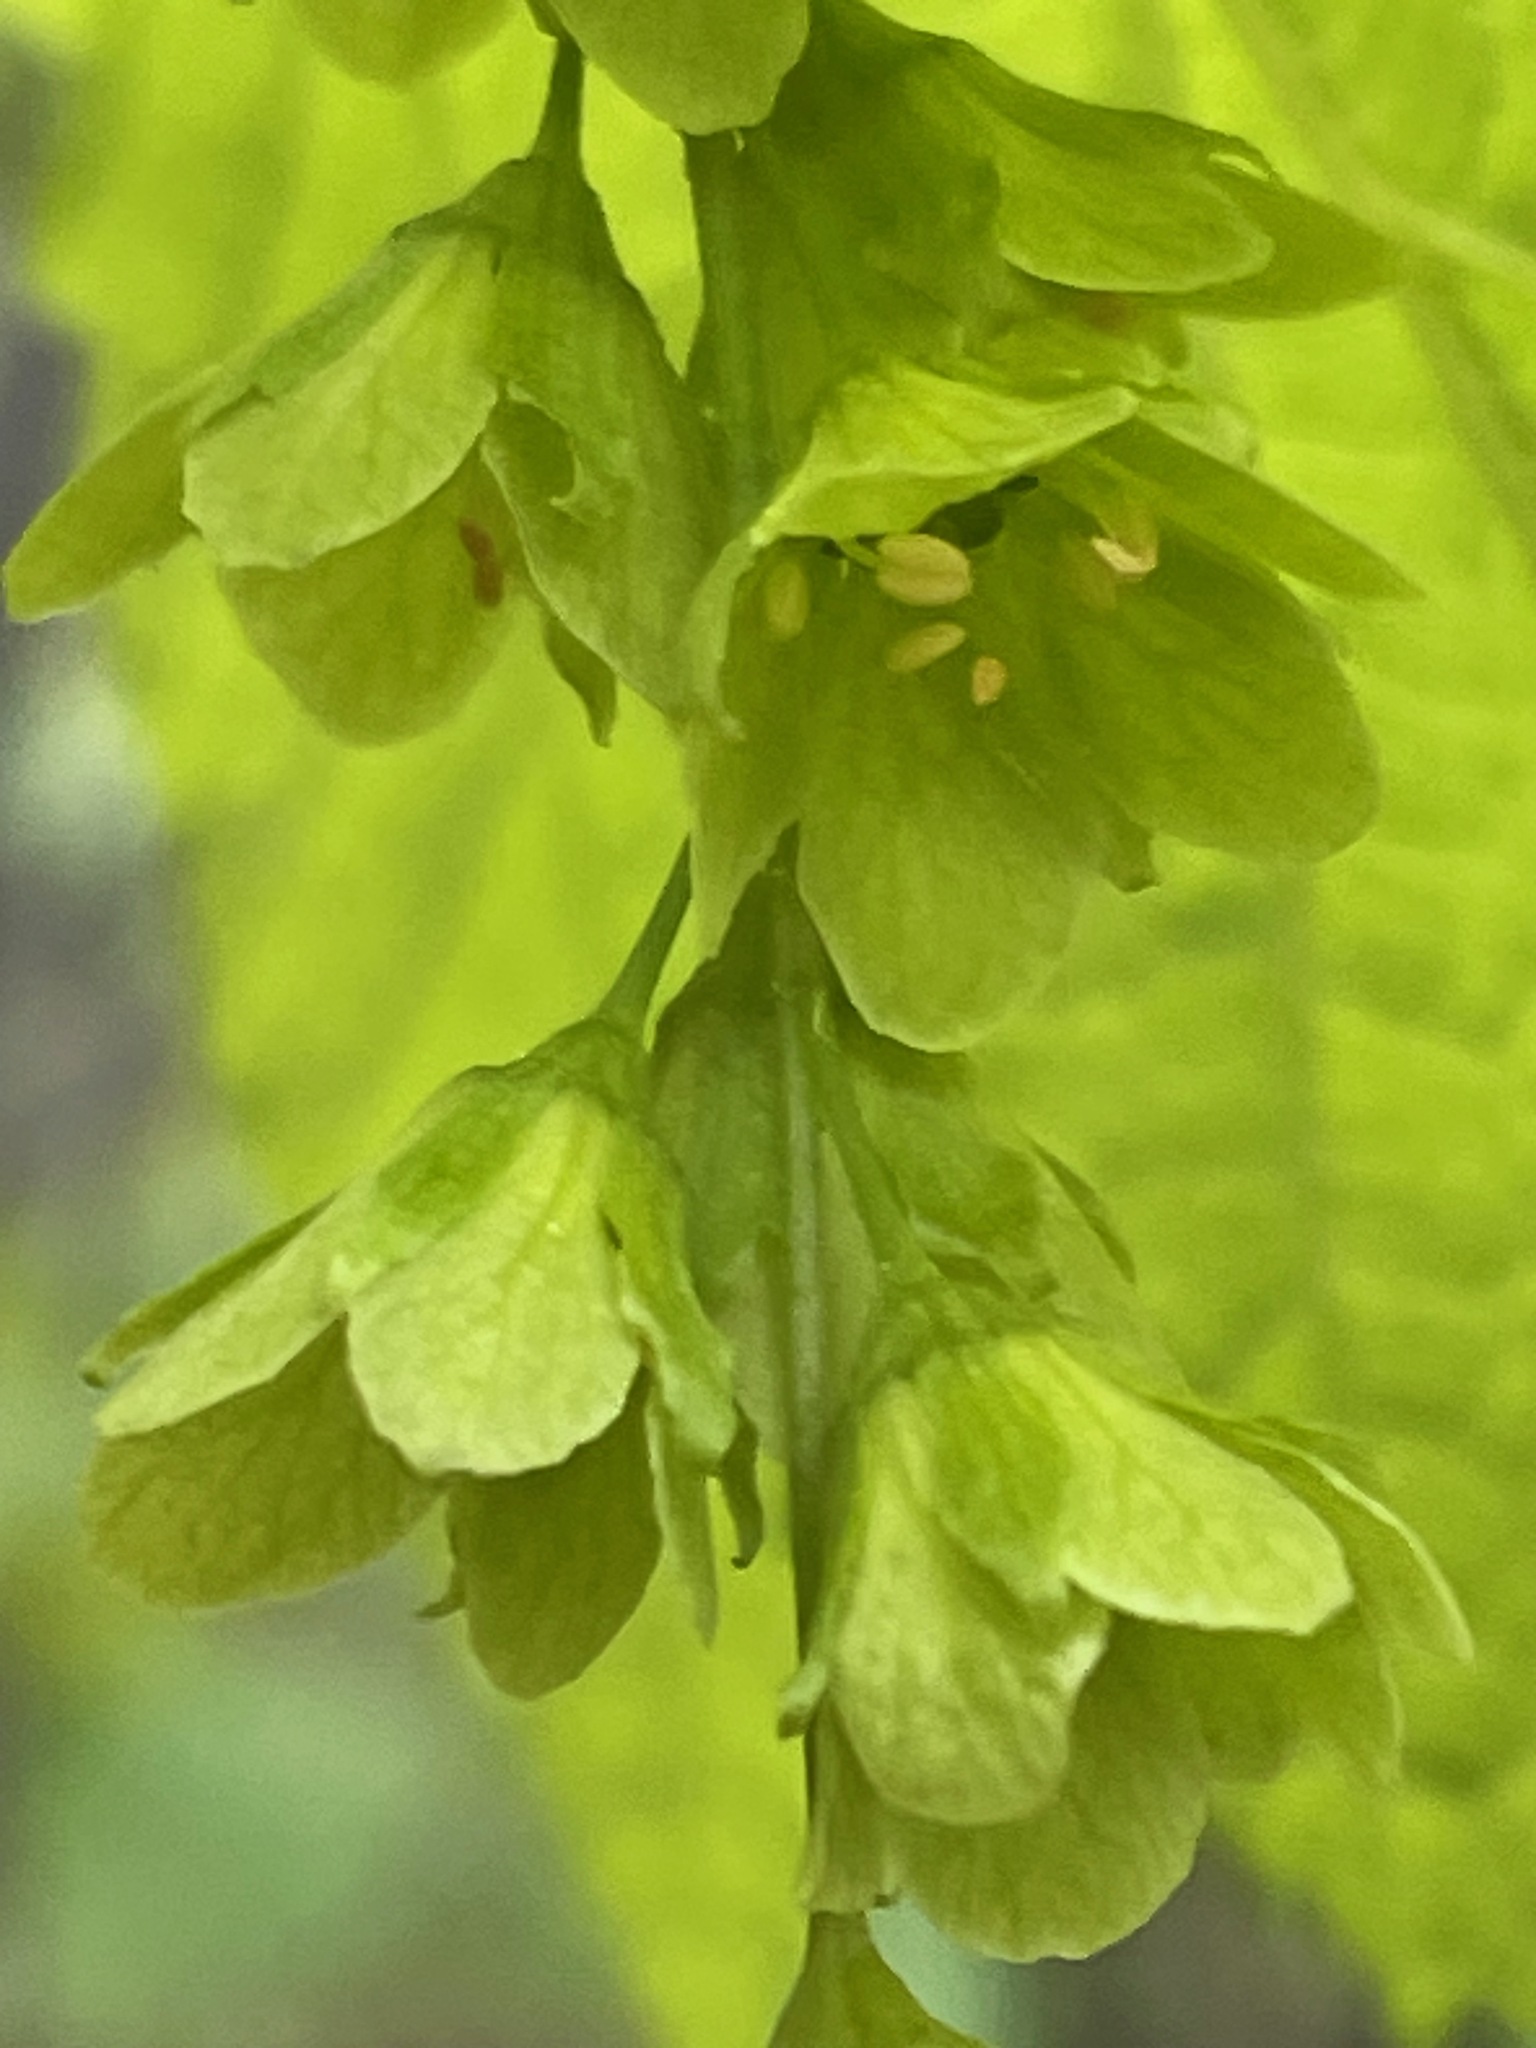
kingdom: Plantae
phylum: Tracheophyta
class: Magnoliopsida
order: Sapindales
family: Sapindaceae
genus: Acer
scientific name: Acer pensylvanicum
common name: Moosewood
